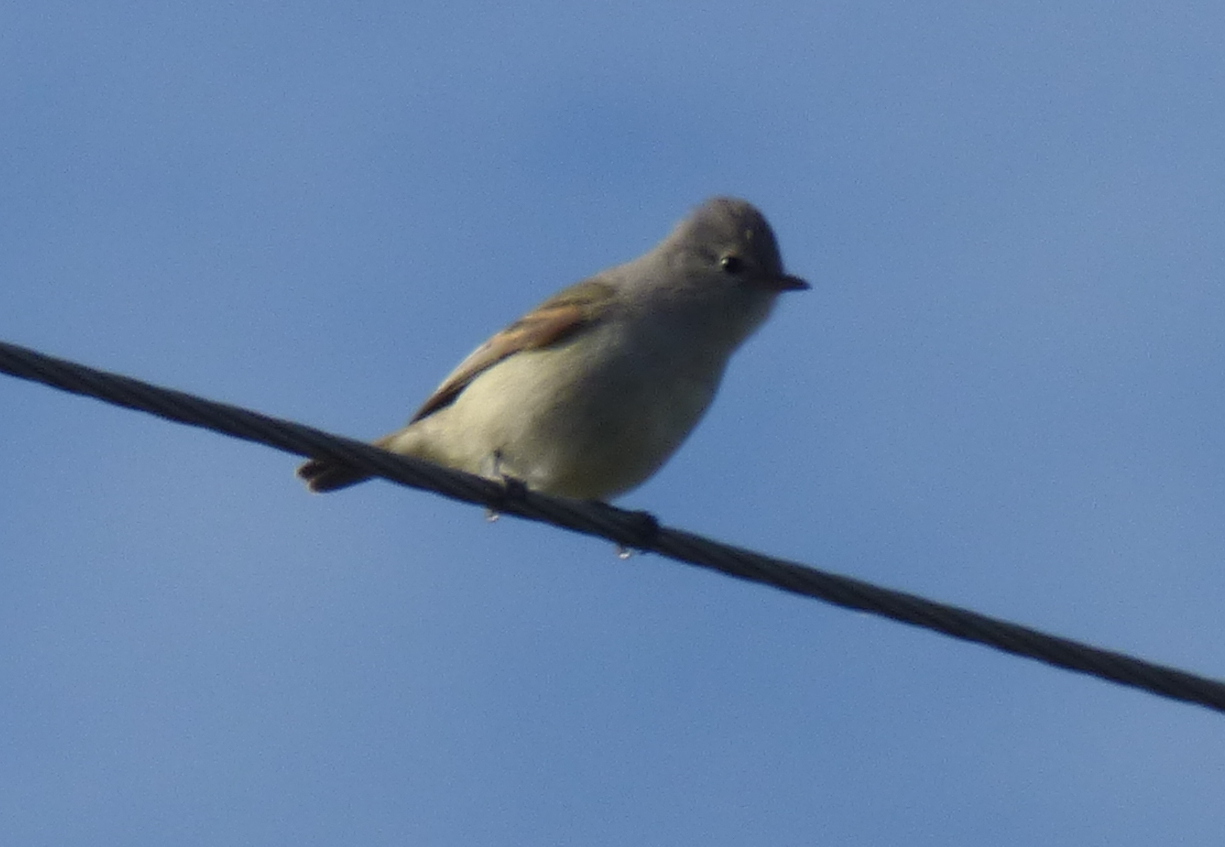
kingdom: Animalia
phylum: Chordata
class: Aves
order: Passeriformes
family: Tyrannidae
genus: Camptostoma
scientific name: Camptostoma obsoletum
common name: Southern beardless-tyrannulet
